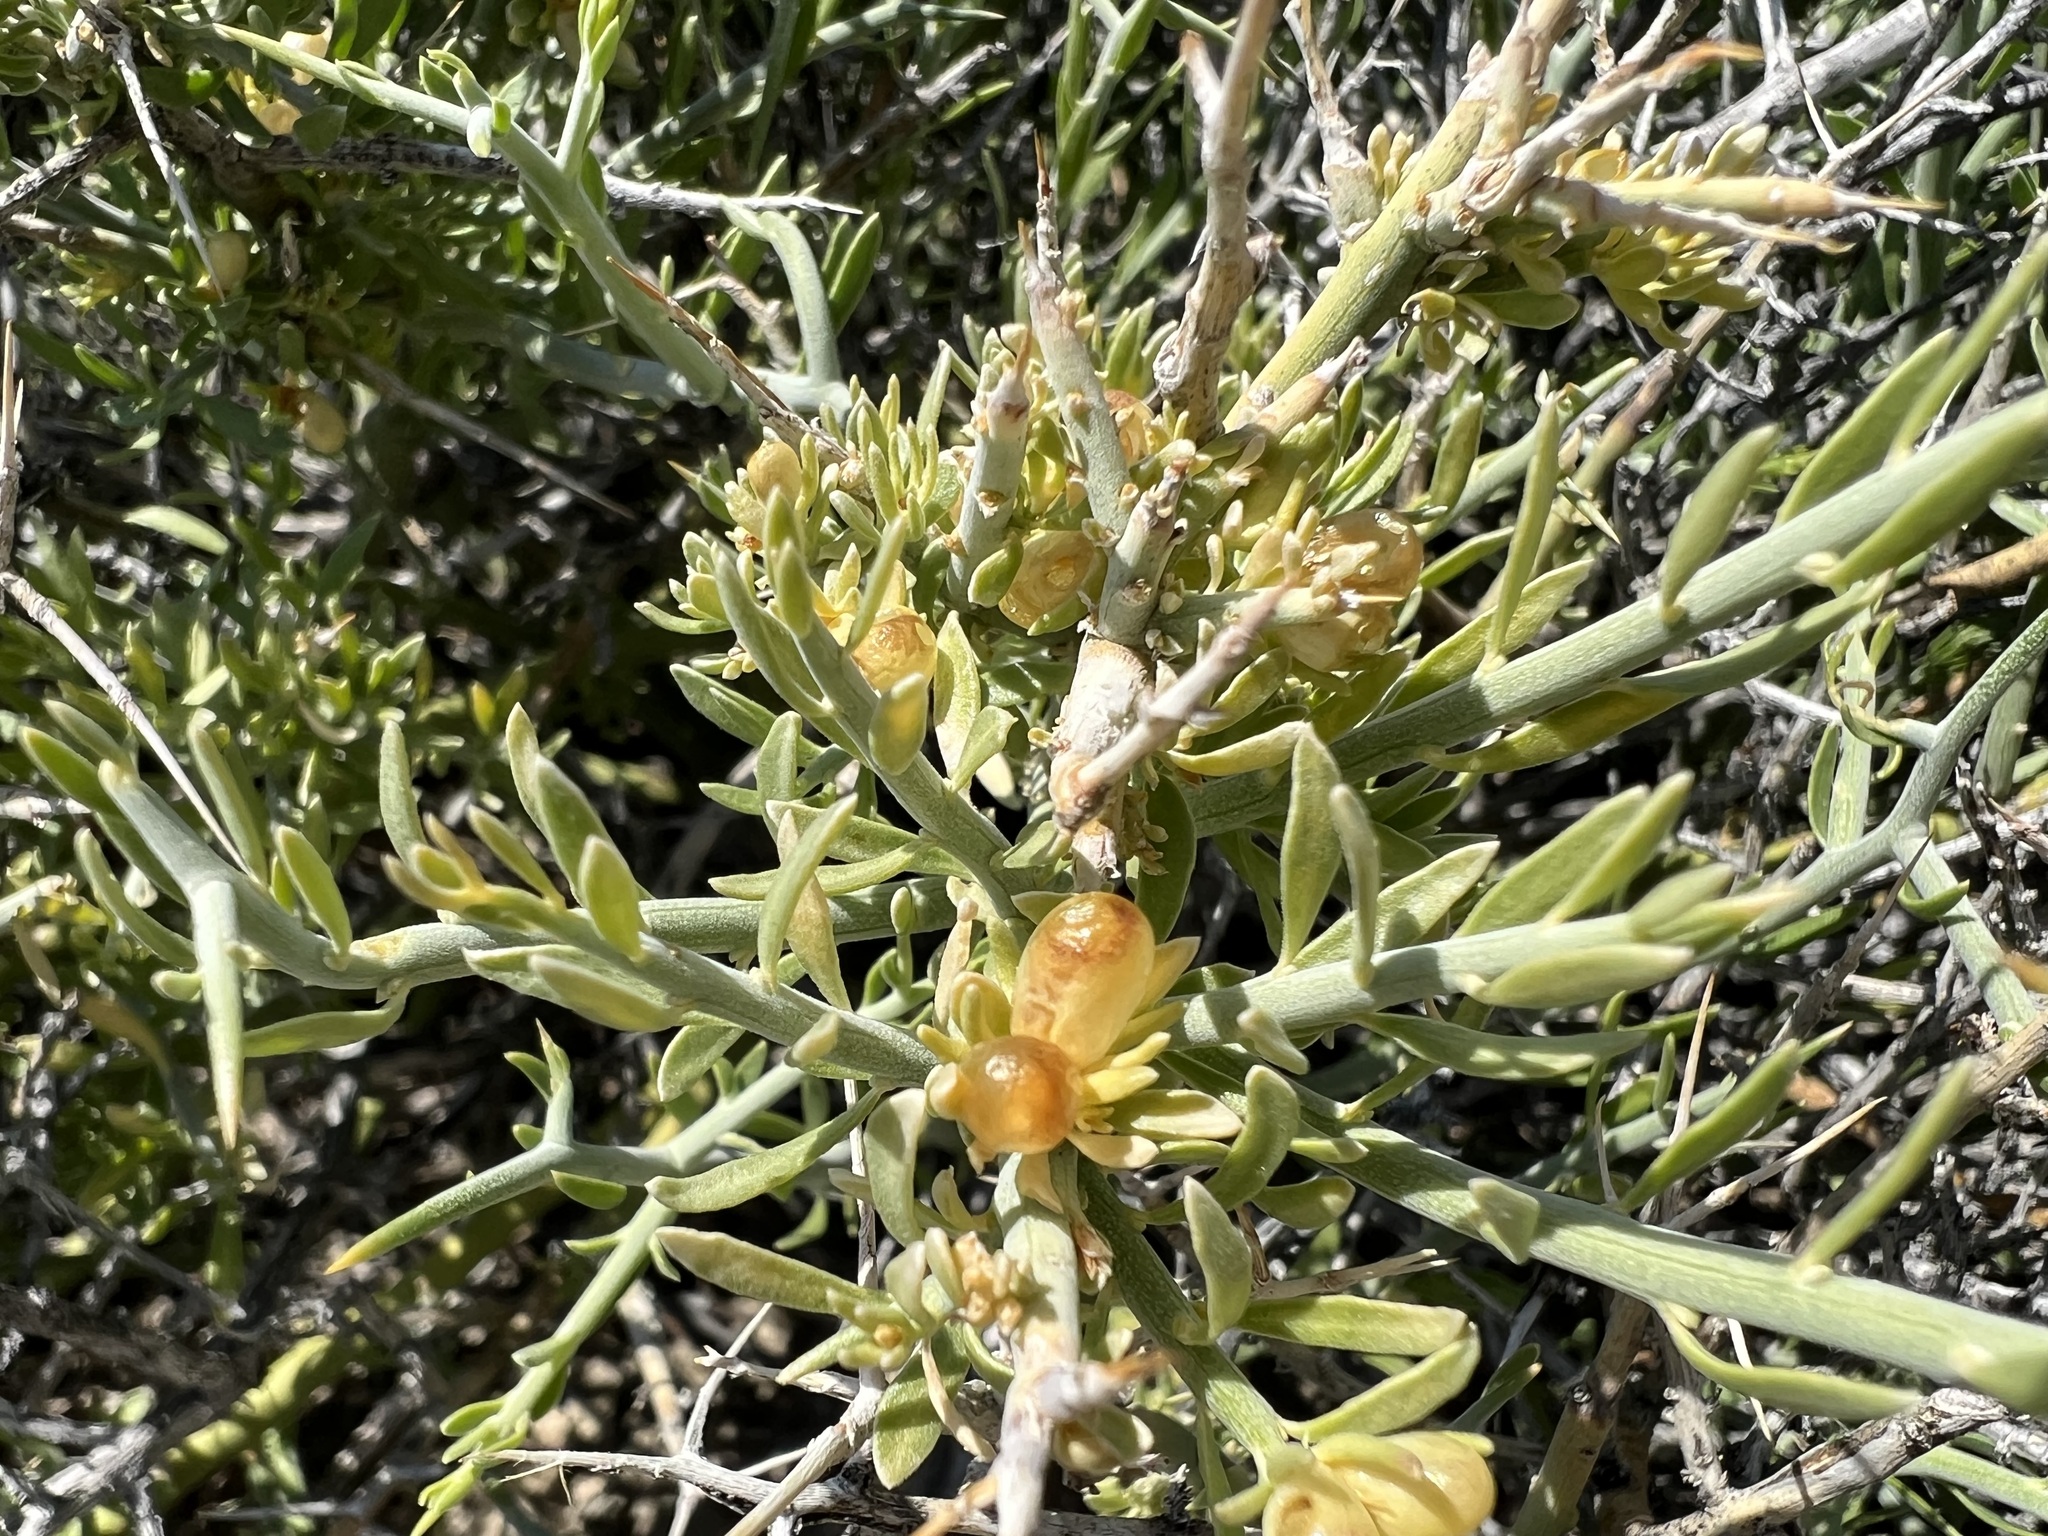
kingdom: Plantae
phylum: Tracheophyta
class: Magnoliopsida
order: Lamiales
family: Oleaceae
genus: Menodora
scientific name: Menodora spinescens
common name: Spiny menodora
